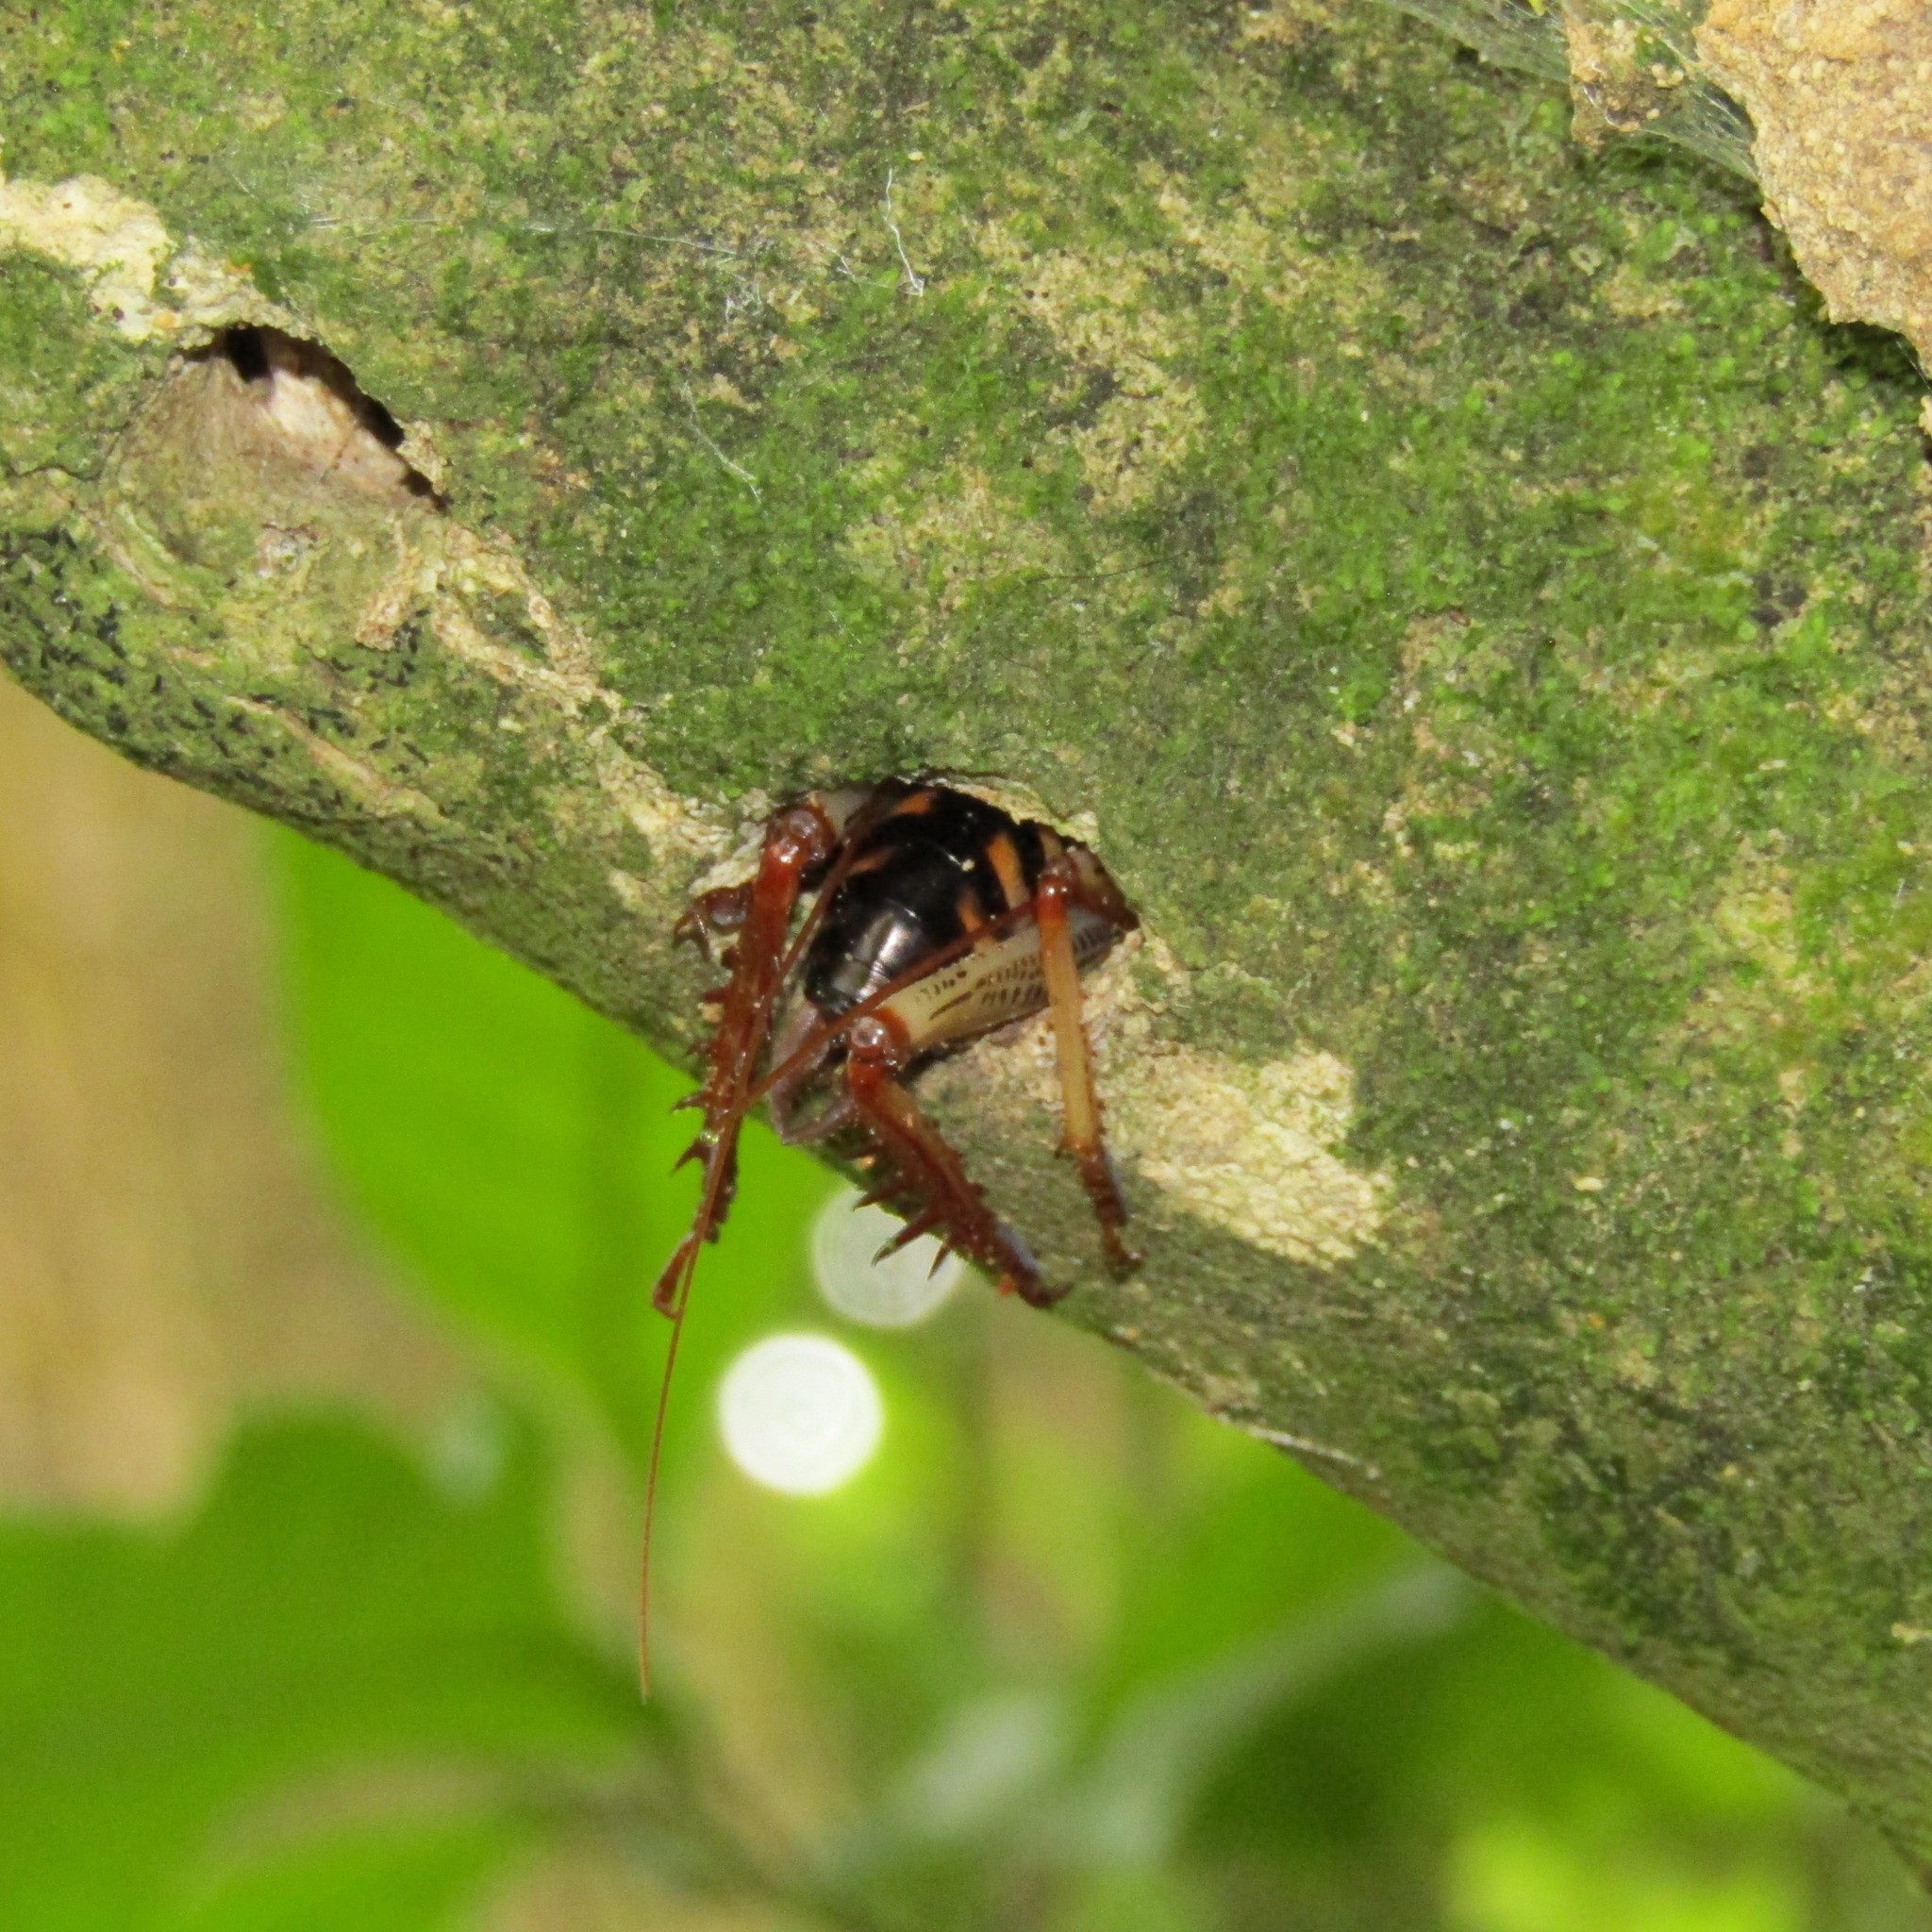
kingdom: Animalia
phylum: Arthropoda
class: Insecta
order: Orthoptera
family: Anostostomatidae
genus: Hemideina
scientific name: Hemideina crassidens
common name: Wellington tree weta
